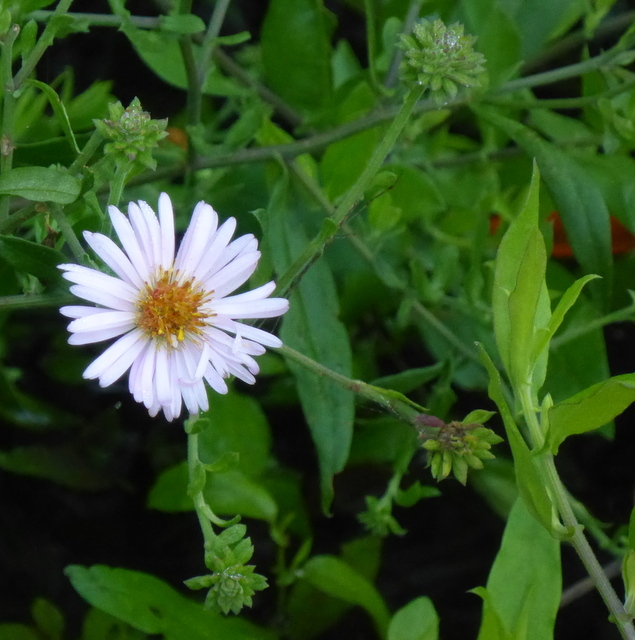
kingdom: Plantae
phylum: Tracheophyta
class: Magnoliopsida
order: Asterales
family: Asteraceae
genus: Ampelaster
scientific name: Ampelaster carolinianus
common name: Climbing aster
